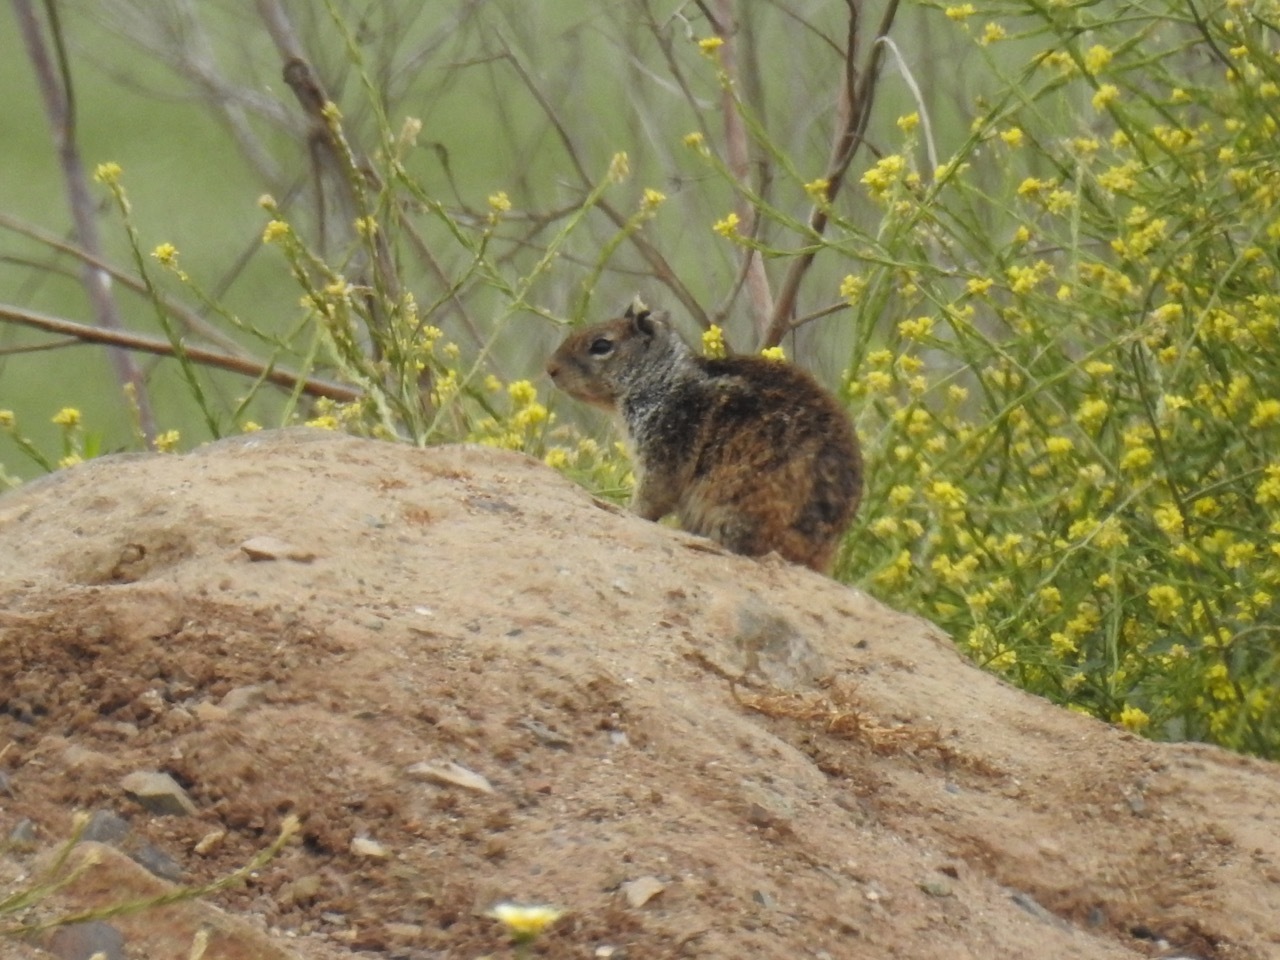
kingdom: Animalia
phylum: Chordata
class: Mammalia
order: Rodentia
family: Sciuridae
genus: Otospermophilus
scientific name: Otospermophilus beecheyi
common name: California ground squirrel
